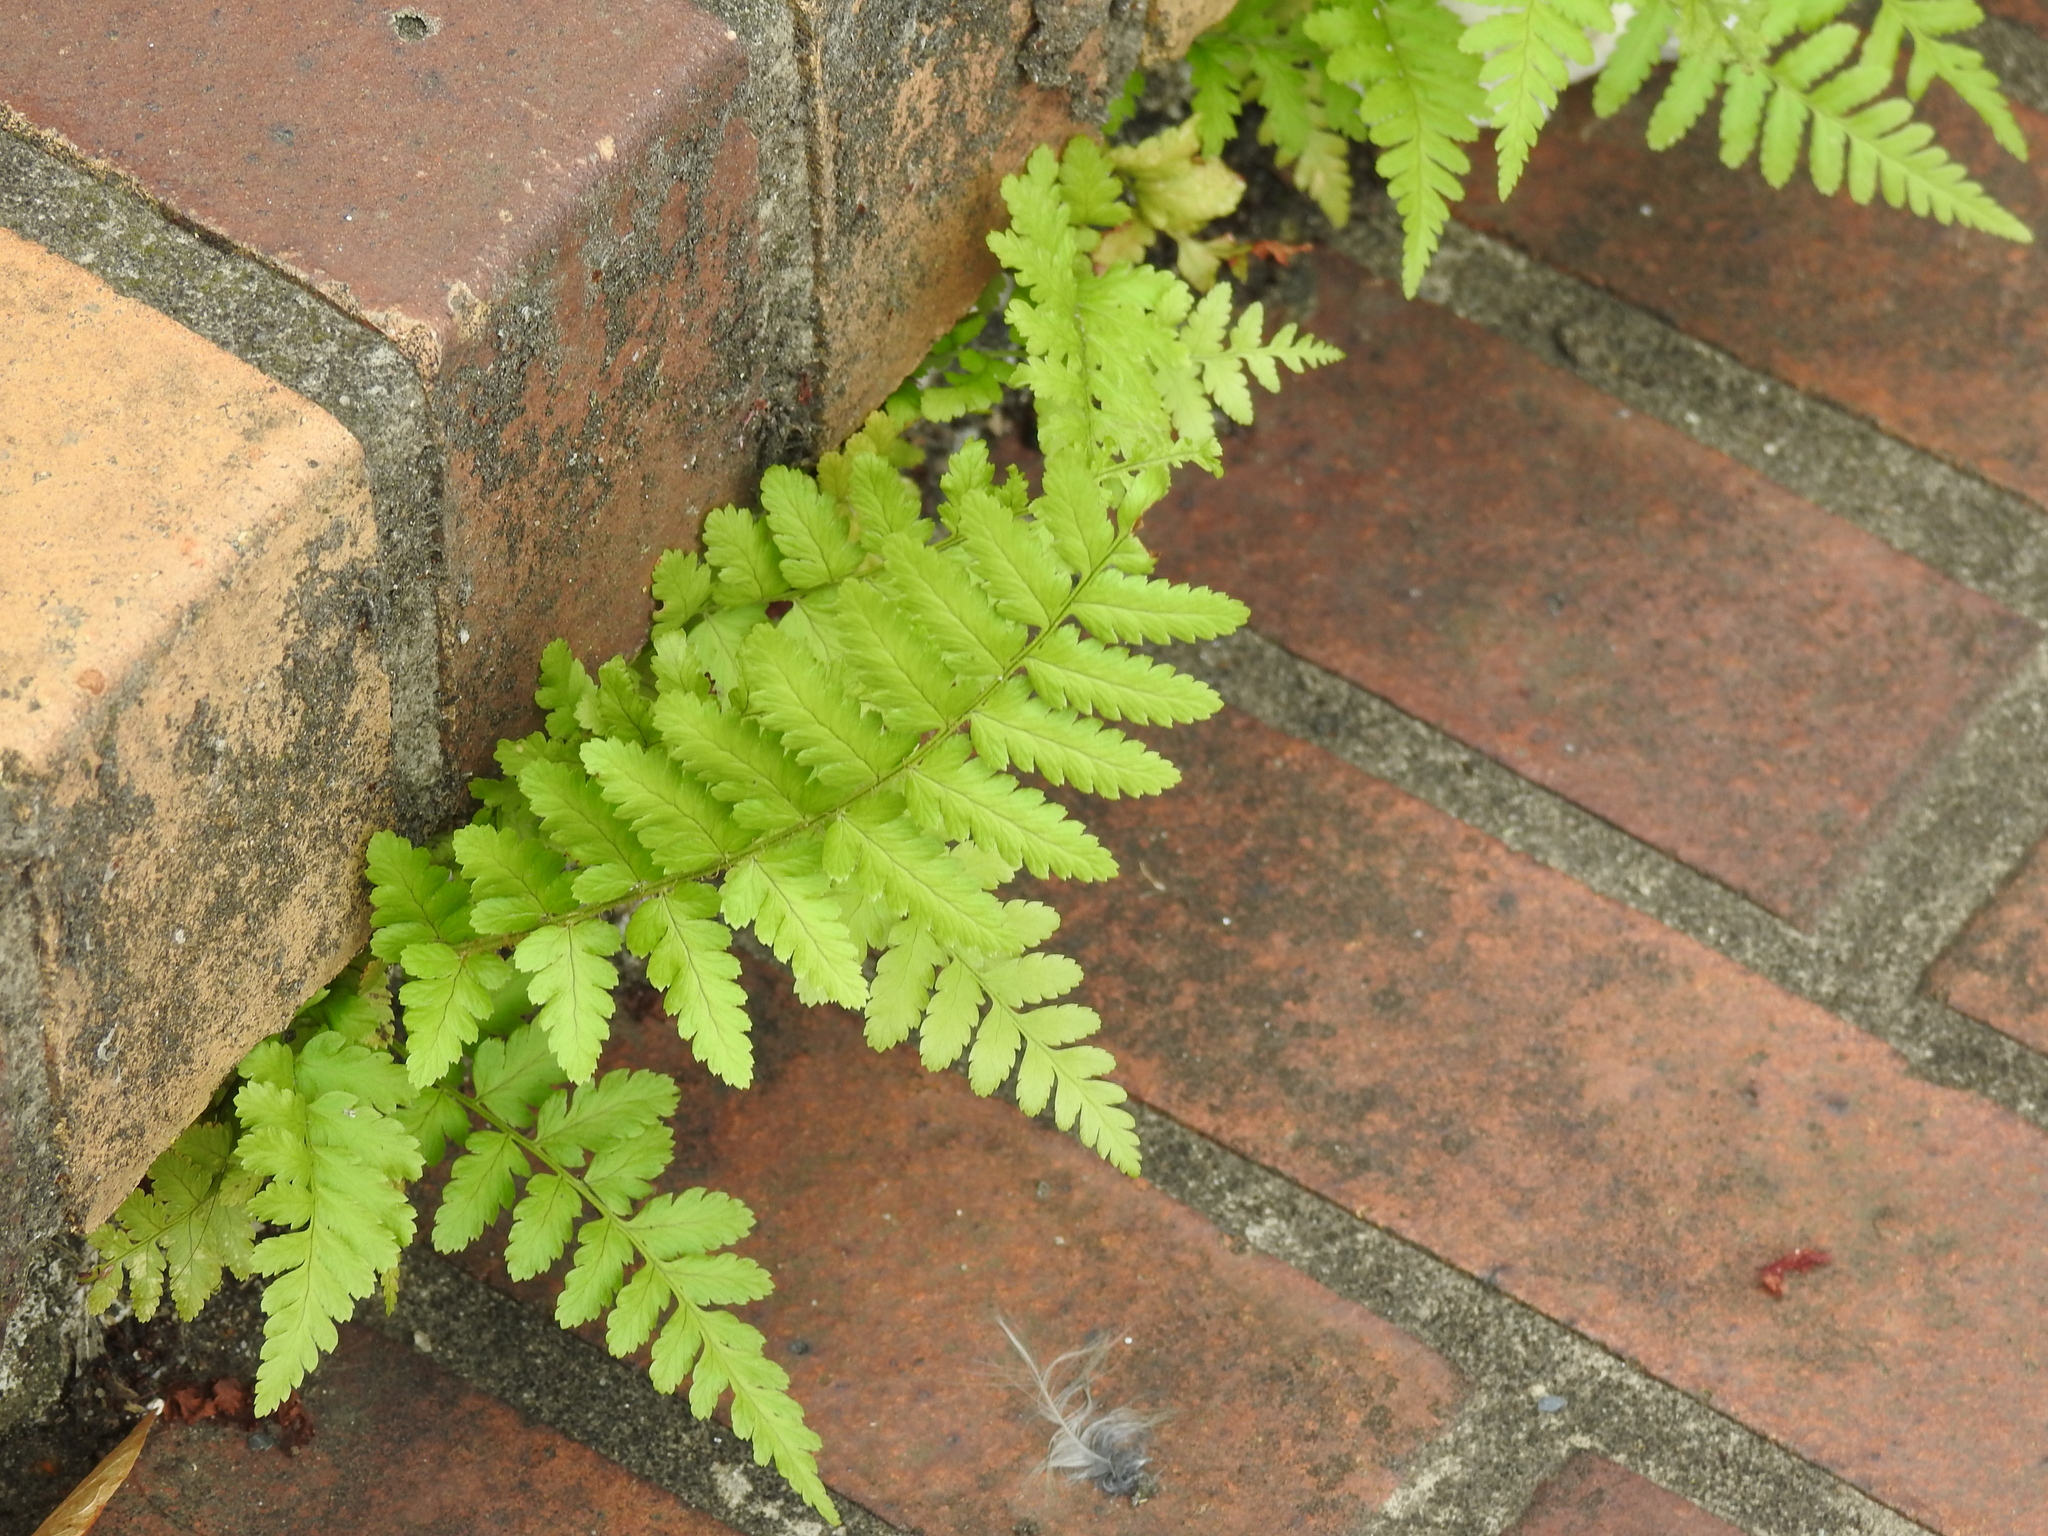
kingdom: Plantae
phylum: Tracheophyta
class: Polypodiopsida
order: Polypodiales
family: Dryopteridaceae
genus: Dryopteris
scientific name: Dryopteris filix-mas
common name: Male fern
